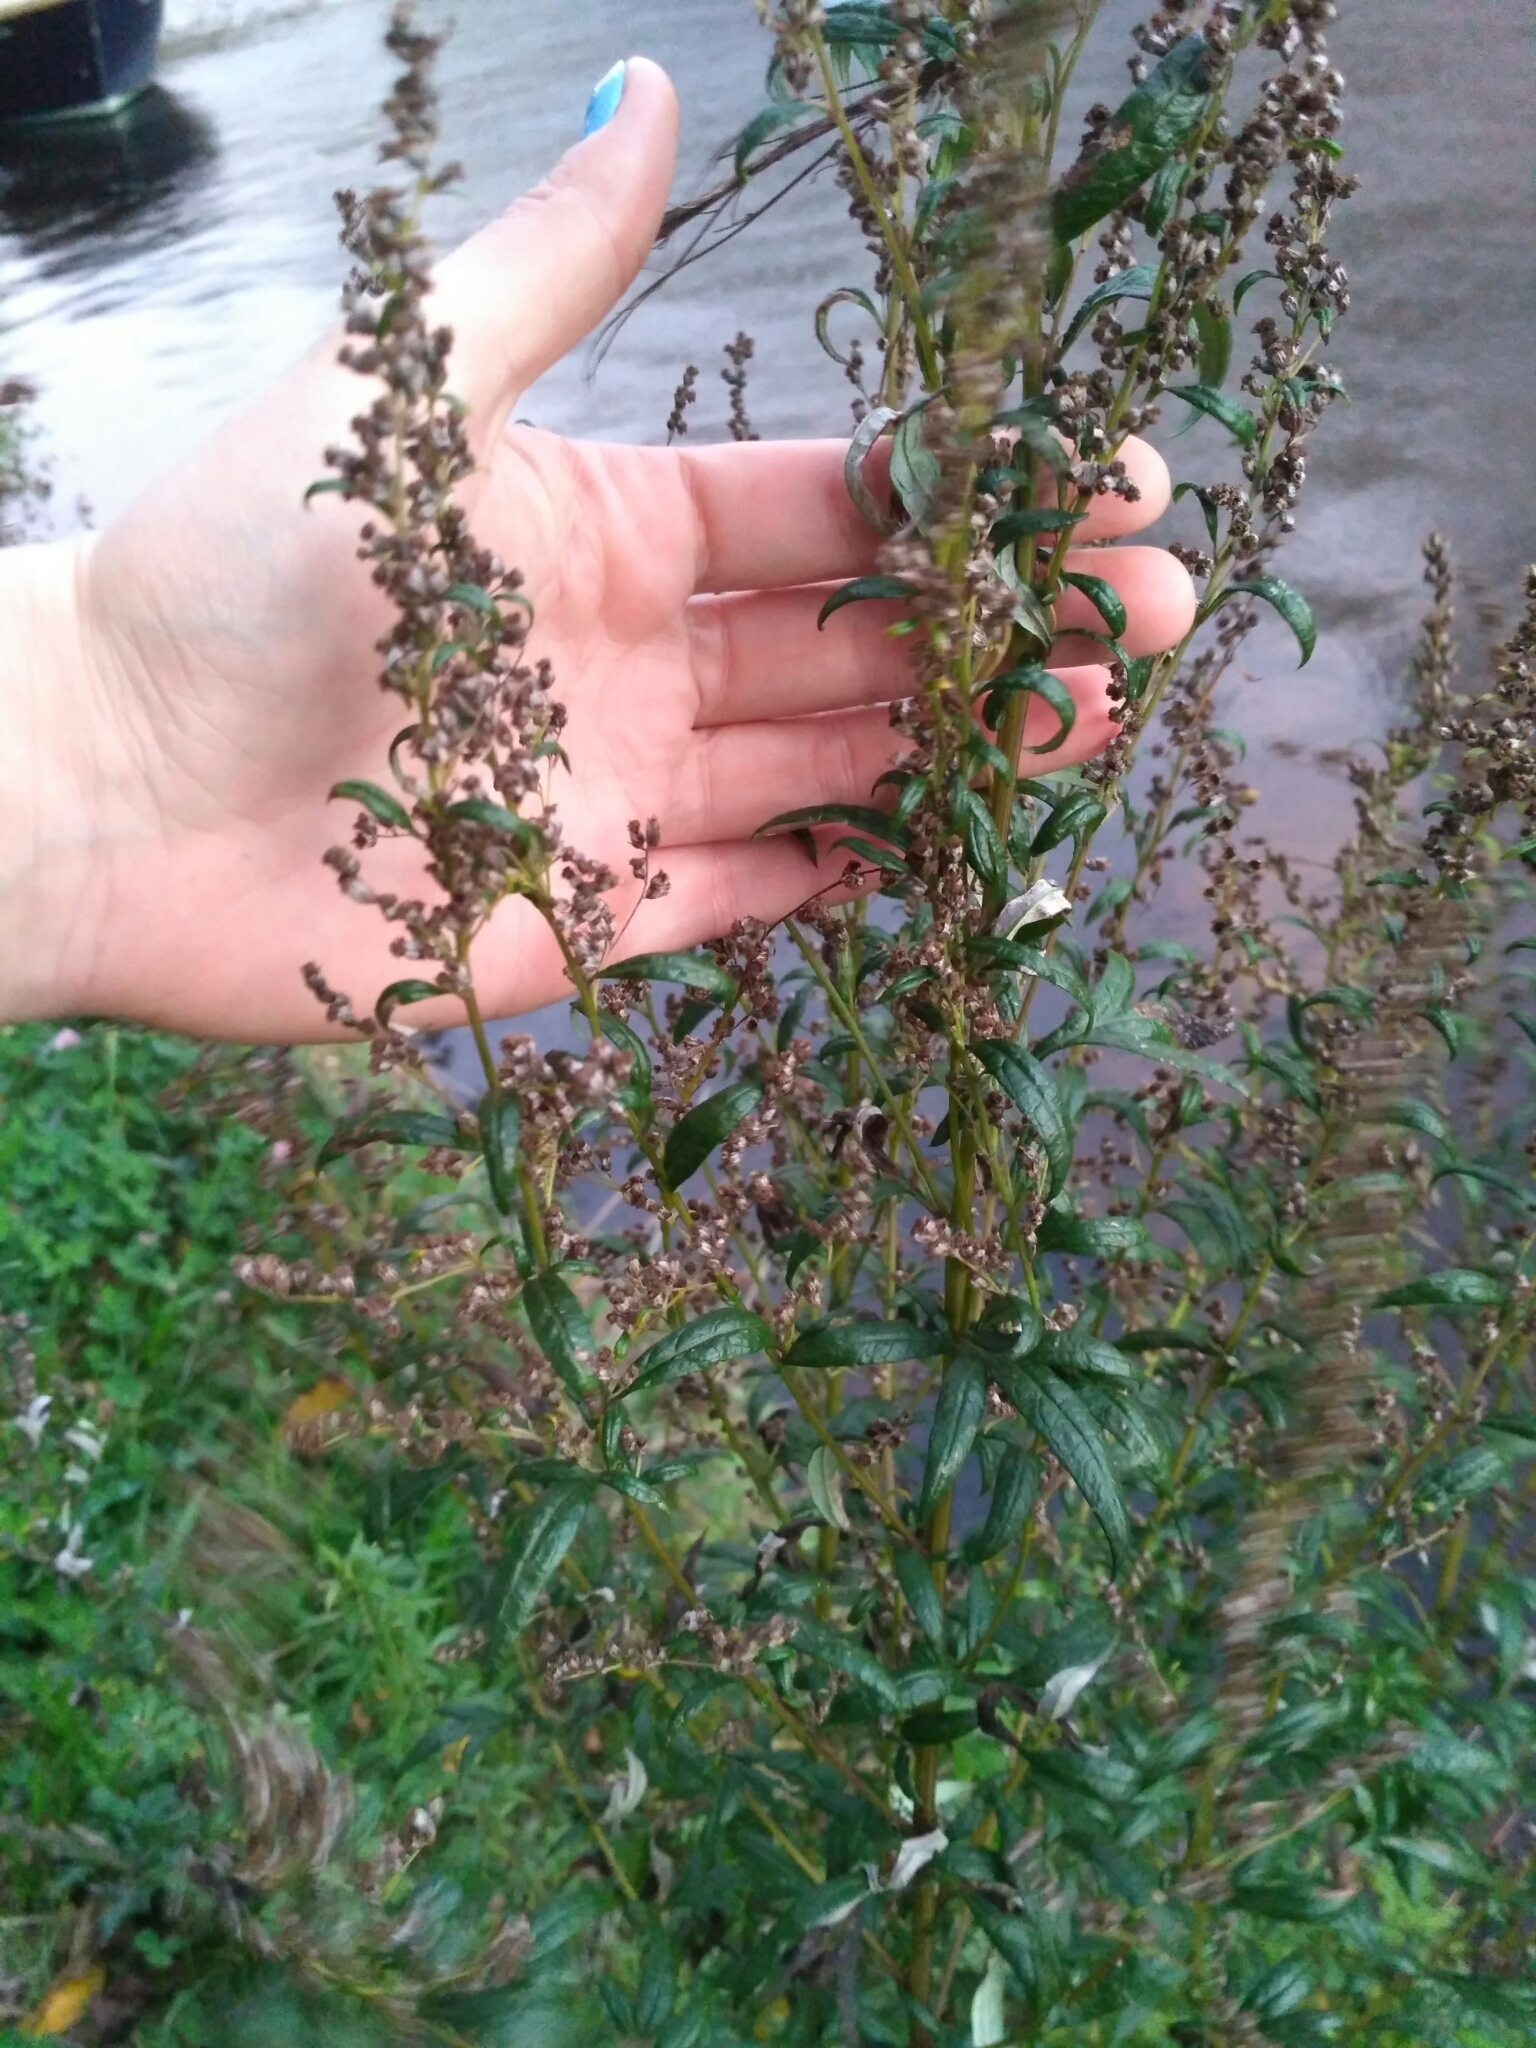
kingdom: Plantae
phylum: Tracheophyta
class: Magnoliopsida
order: Asterales
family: Asteraceae
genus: Artemisia
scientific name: Artemisia vulgaris
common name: Mugwort
